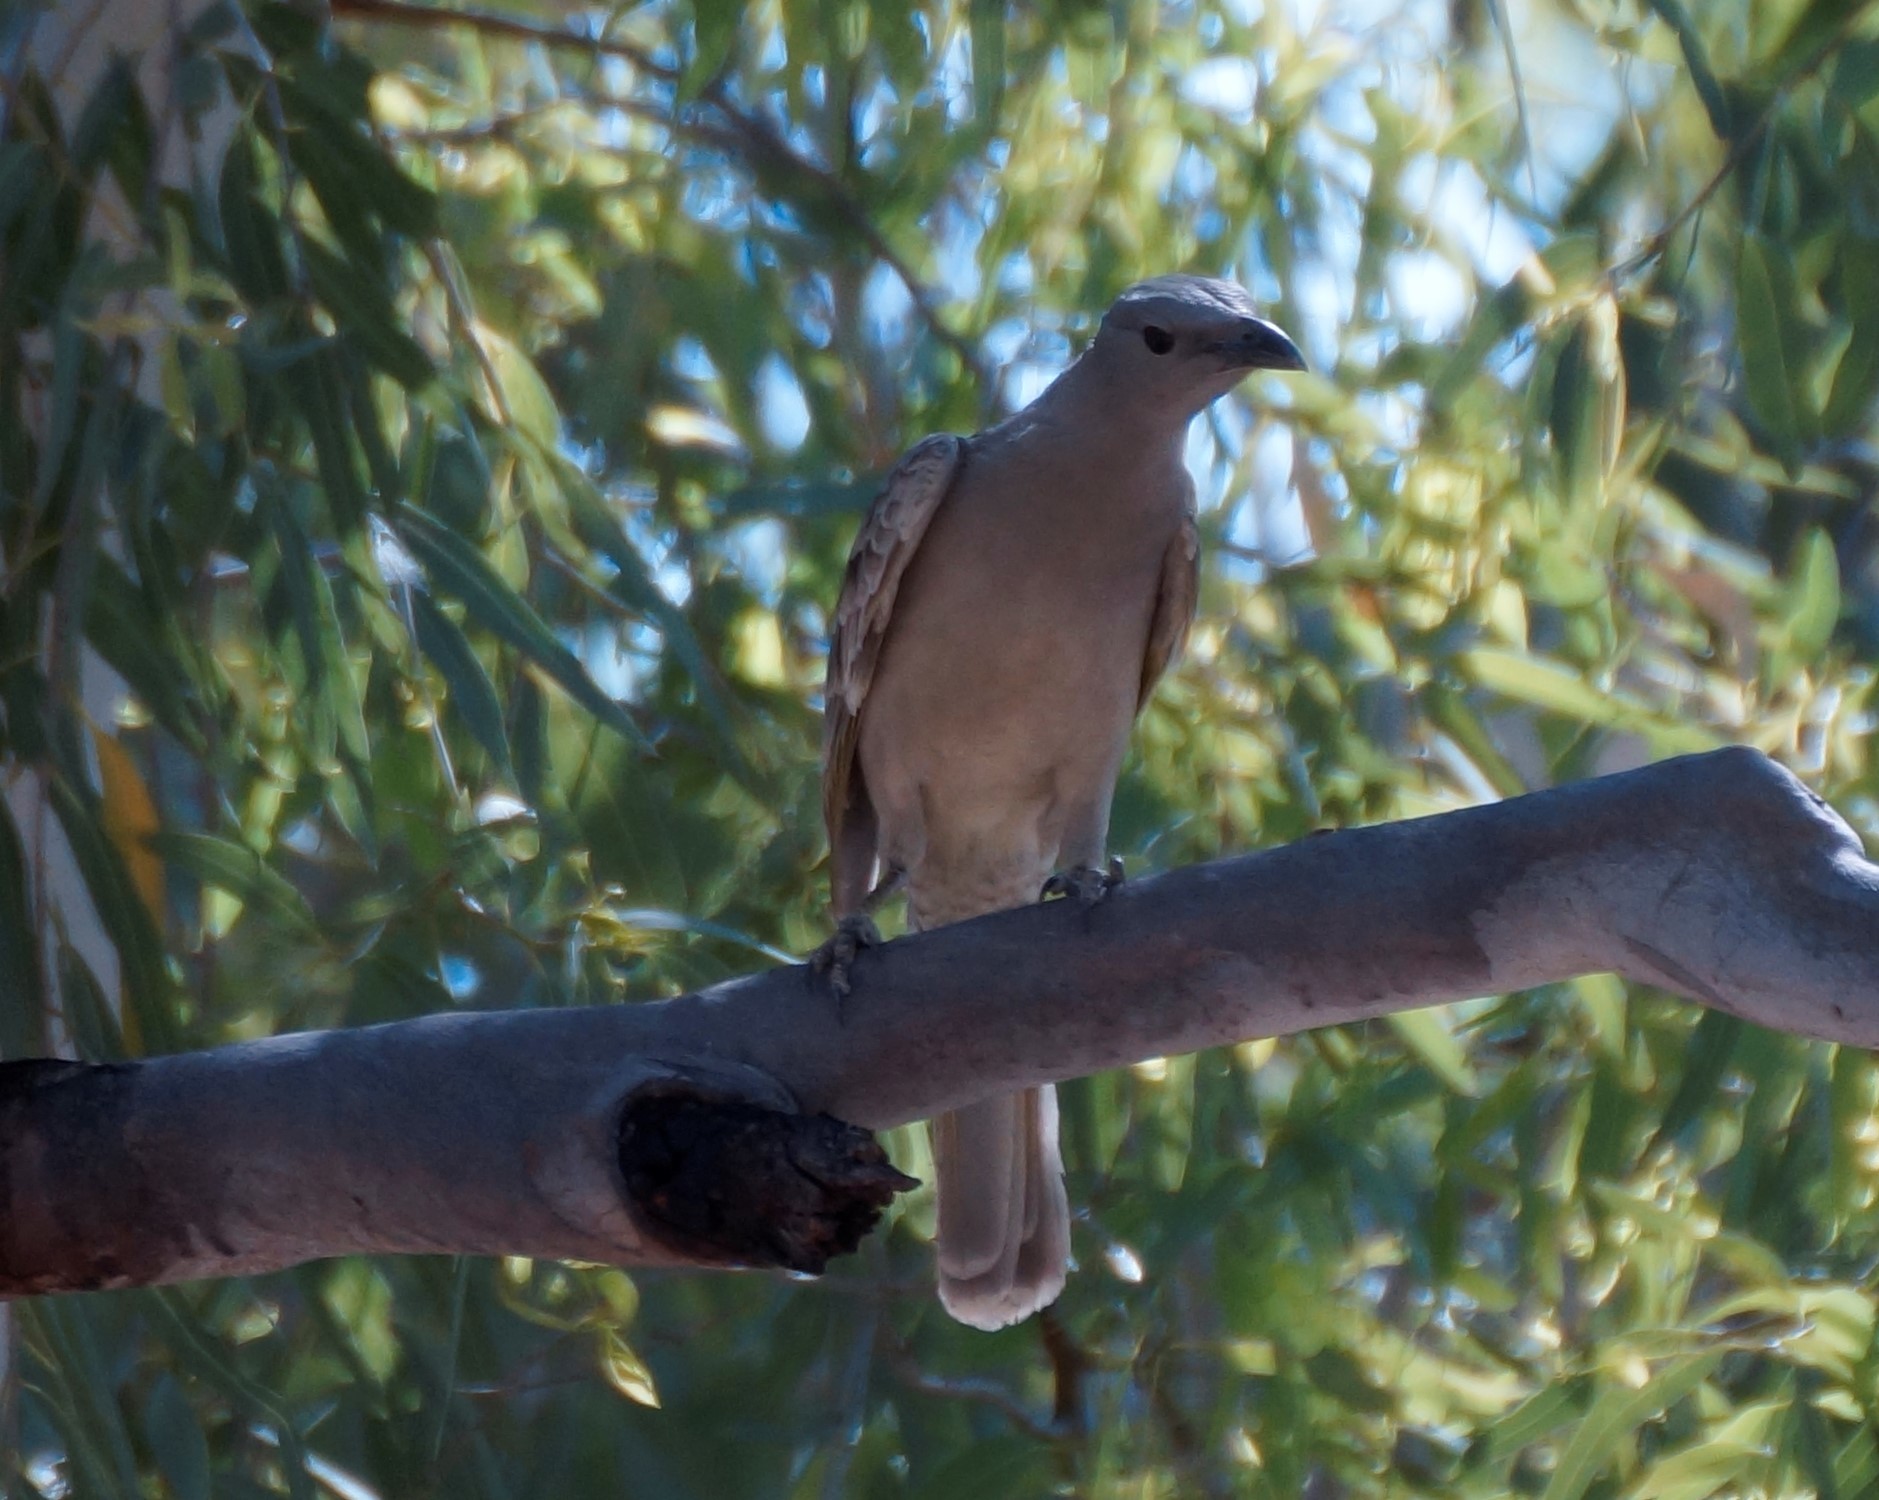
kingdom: Animalia
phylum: Chordata
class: Aves
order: Passeriformes
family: Ptilonorhynchidae
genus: Chlamydera
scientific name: Chlamydera nuchalis
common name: Great bowerbird
